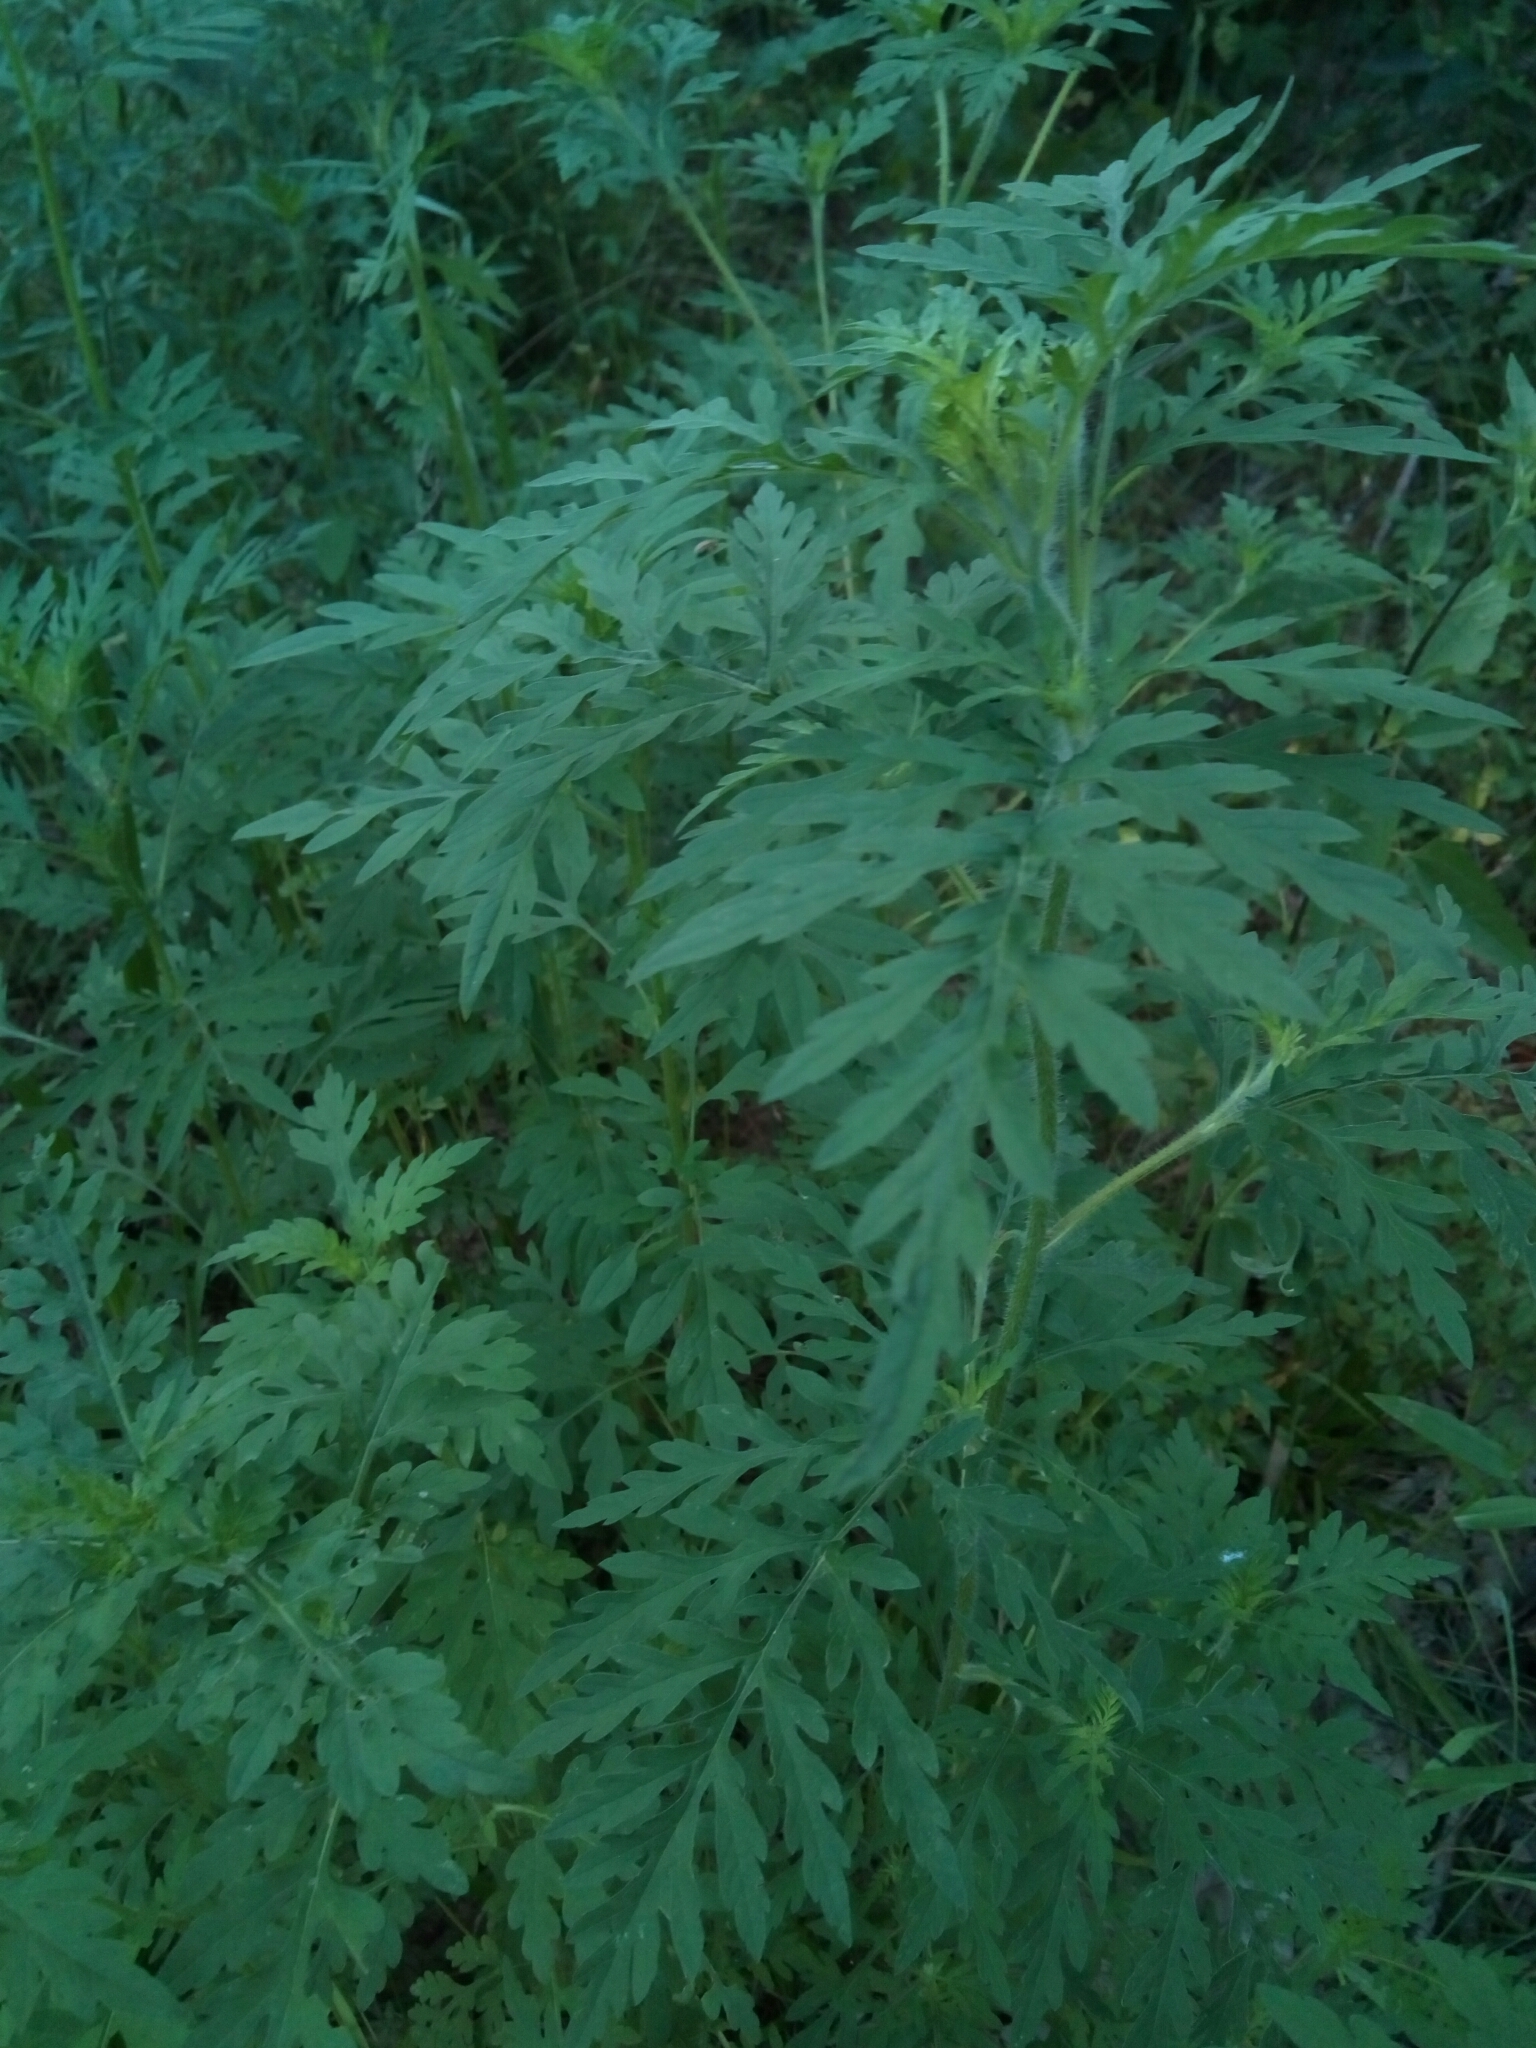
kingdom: Plantae
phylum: Tracheophyta
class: Magnoliopsida
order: Asterales
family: Asteraceae
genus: Ambrosia
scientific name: Ambrosia artemisiifolia
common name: Annual ragweed
